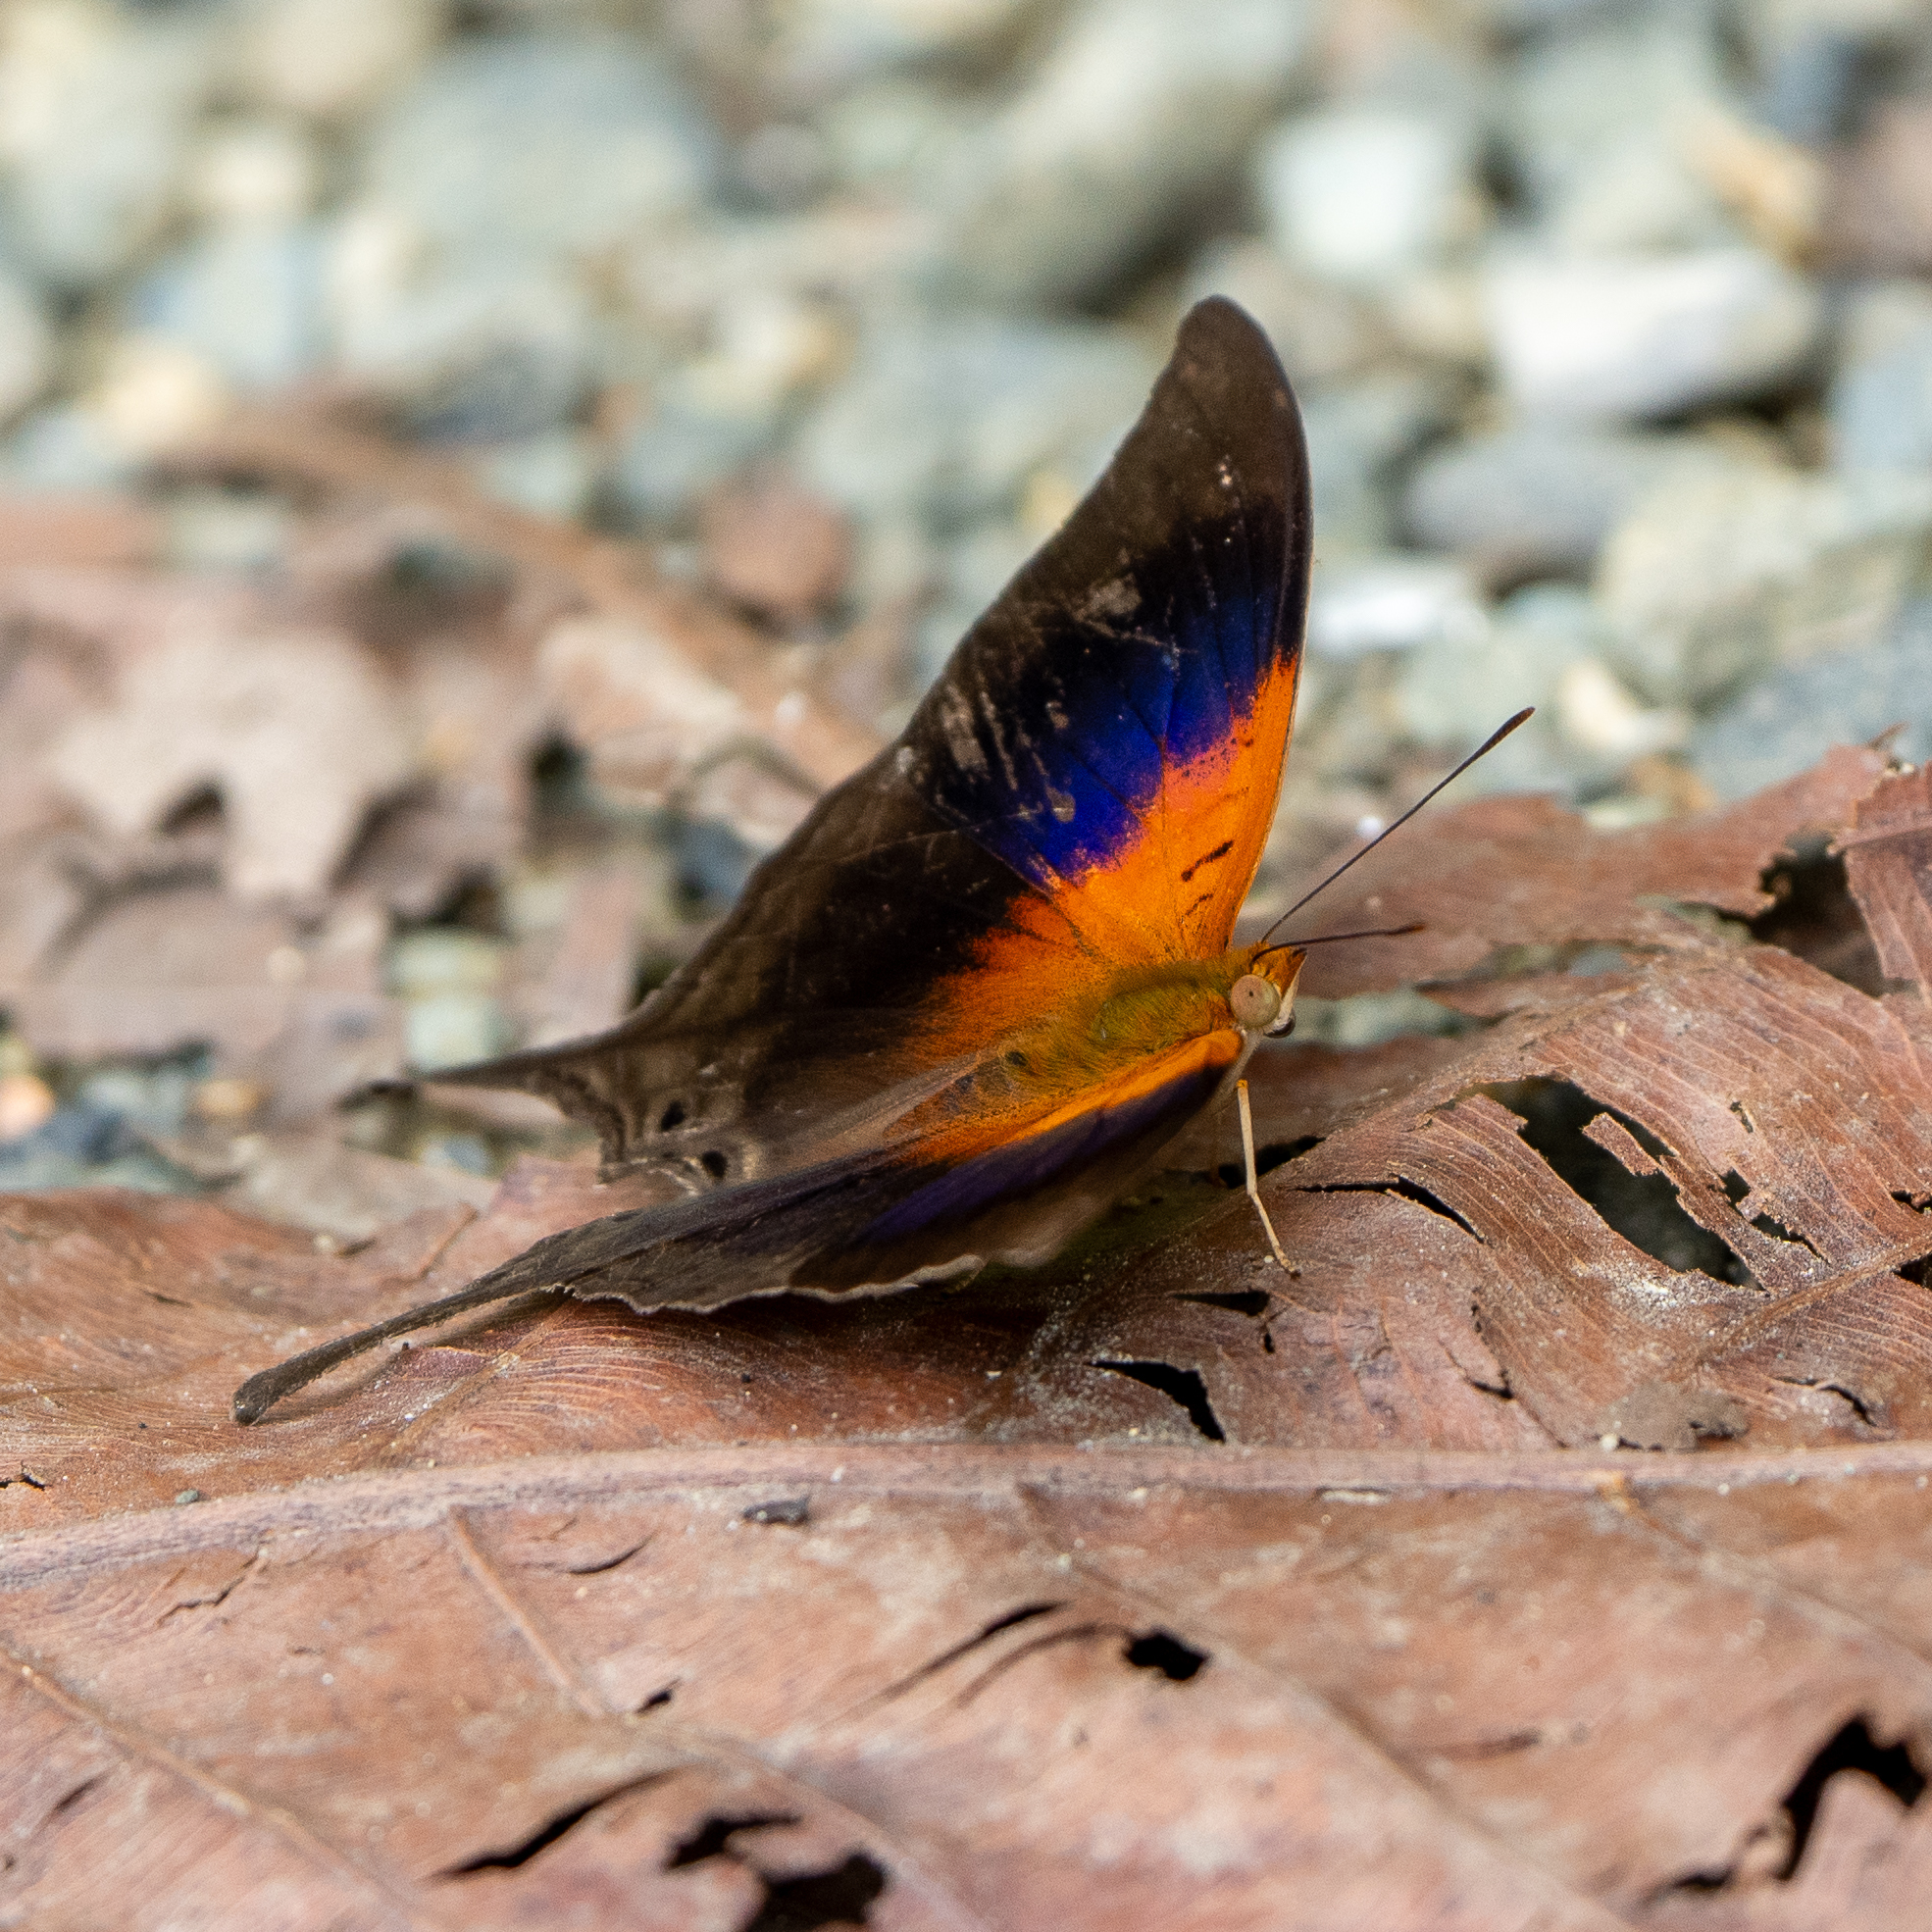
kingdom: Animalia
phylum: Arthropoda
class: Insecta
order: Lepidoptera
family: Nymphalidae
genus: Marpesia
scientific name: Marpesia furcula
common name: Sunset daggerwing
